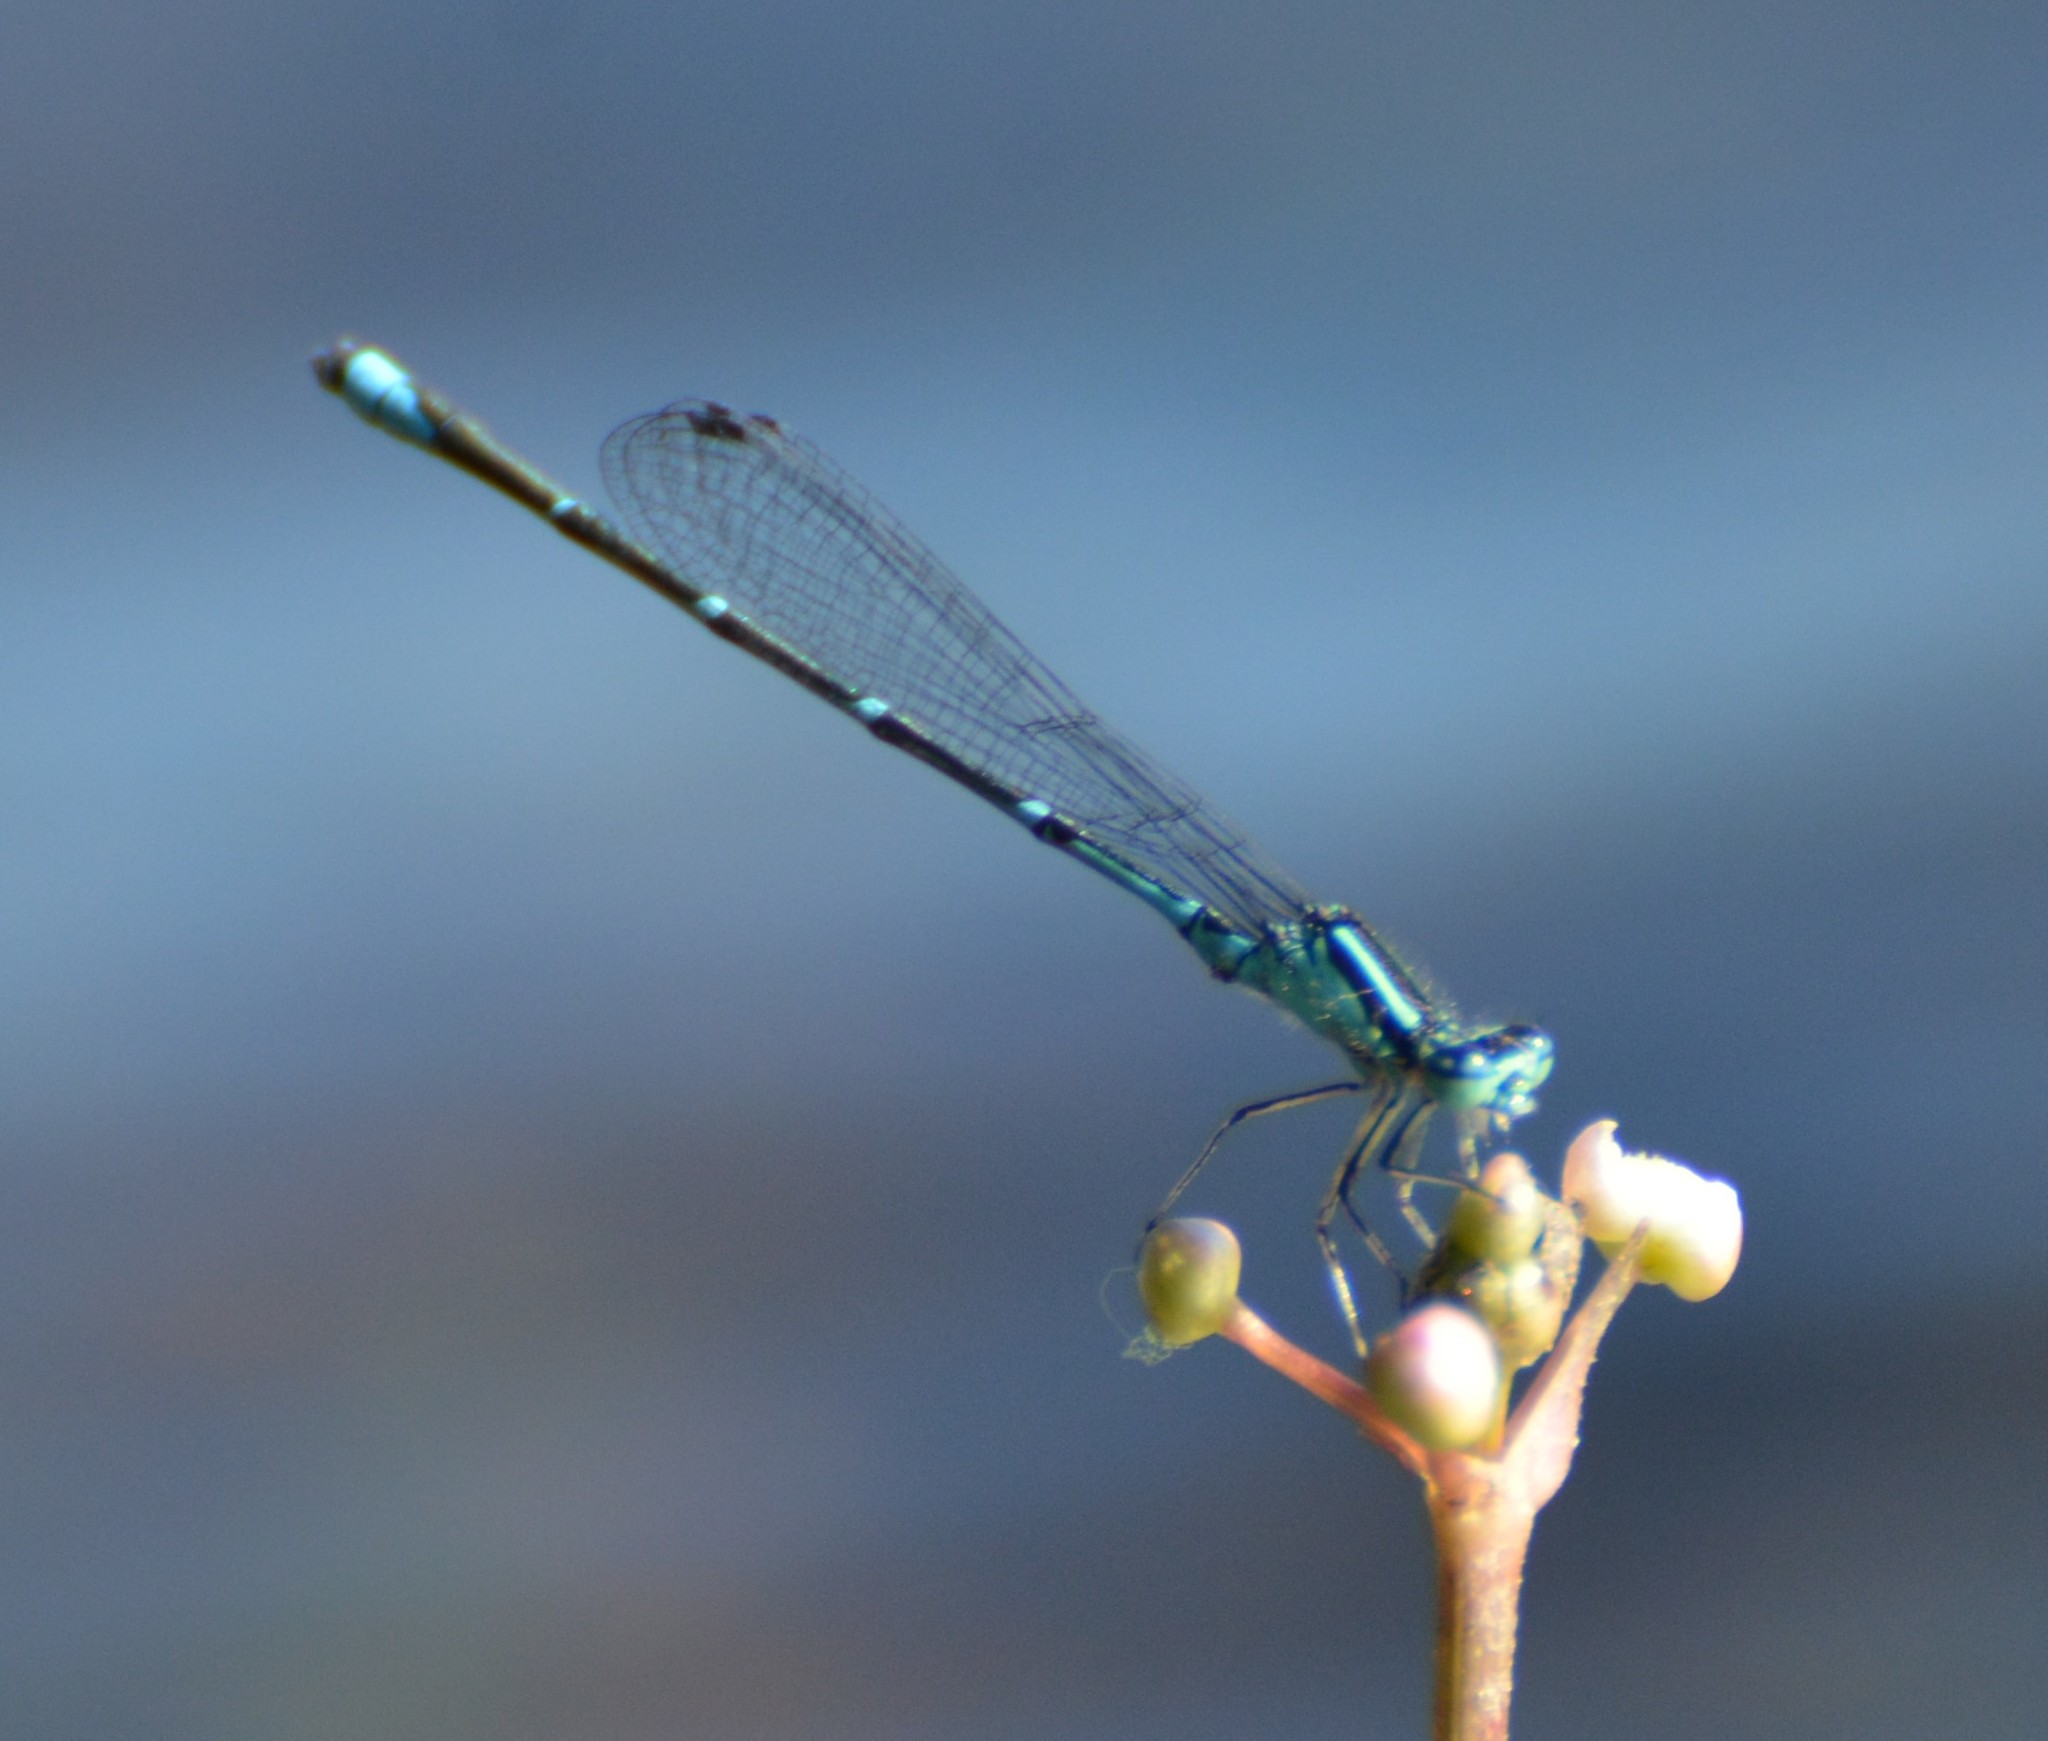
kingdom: Animalia
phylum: Arthropoda
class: Insecta
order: Odonata
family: Coenagrionidae
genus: Enallagma
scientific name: Enallagma exsulans
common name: Stream bluet
